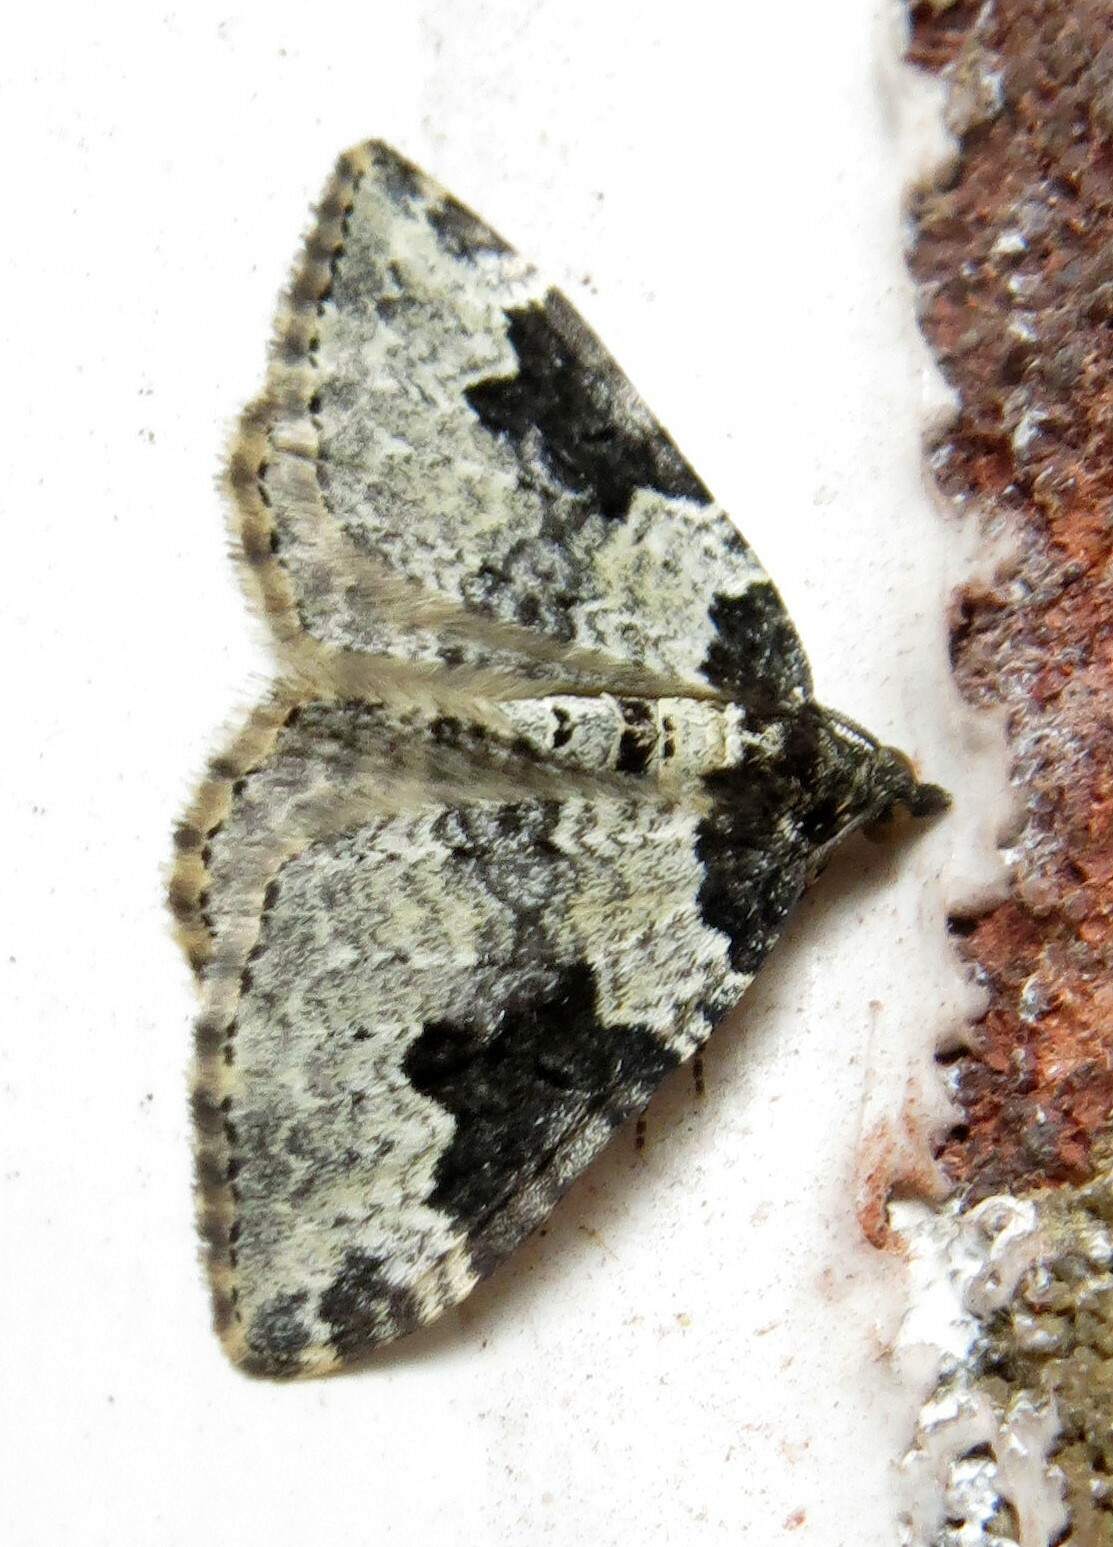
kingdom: Animalia
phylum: Arthropoda
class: Insecta
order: Lepidoptera
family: Geometridae
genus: Xanthorhoe
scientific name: Xanthorhoe fluctuata
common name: Garden carpet
